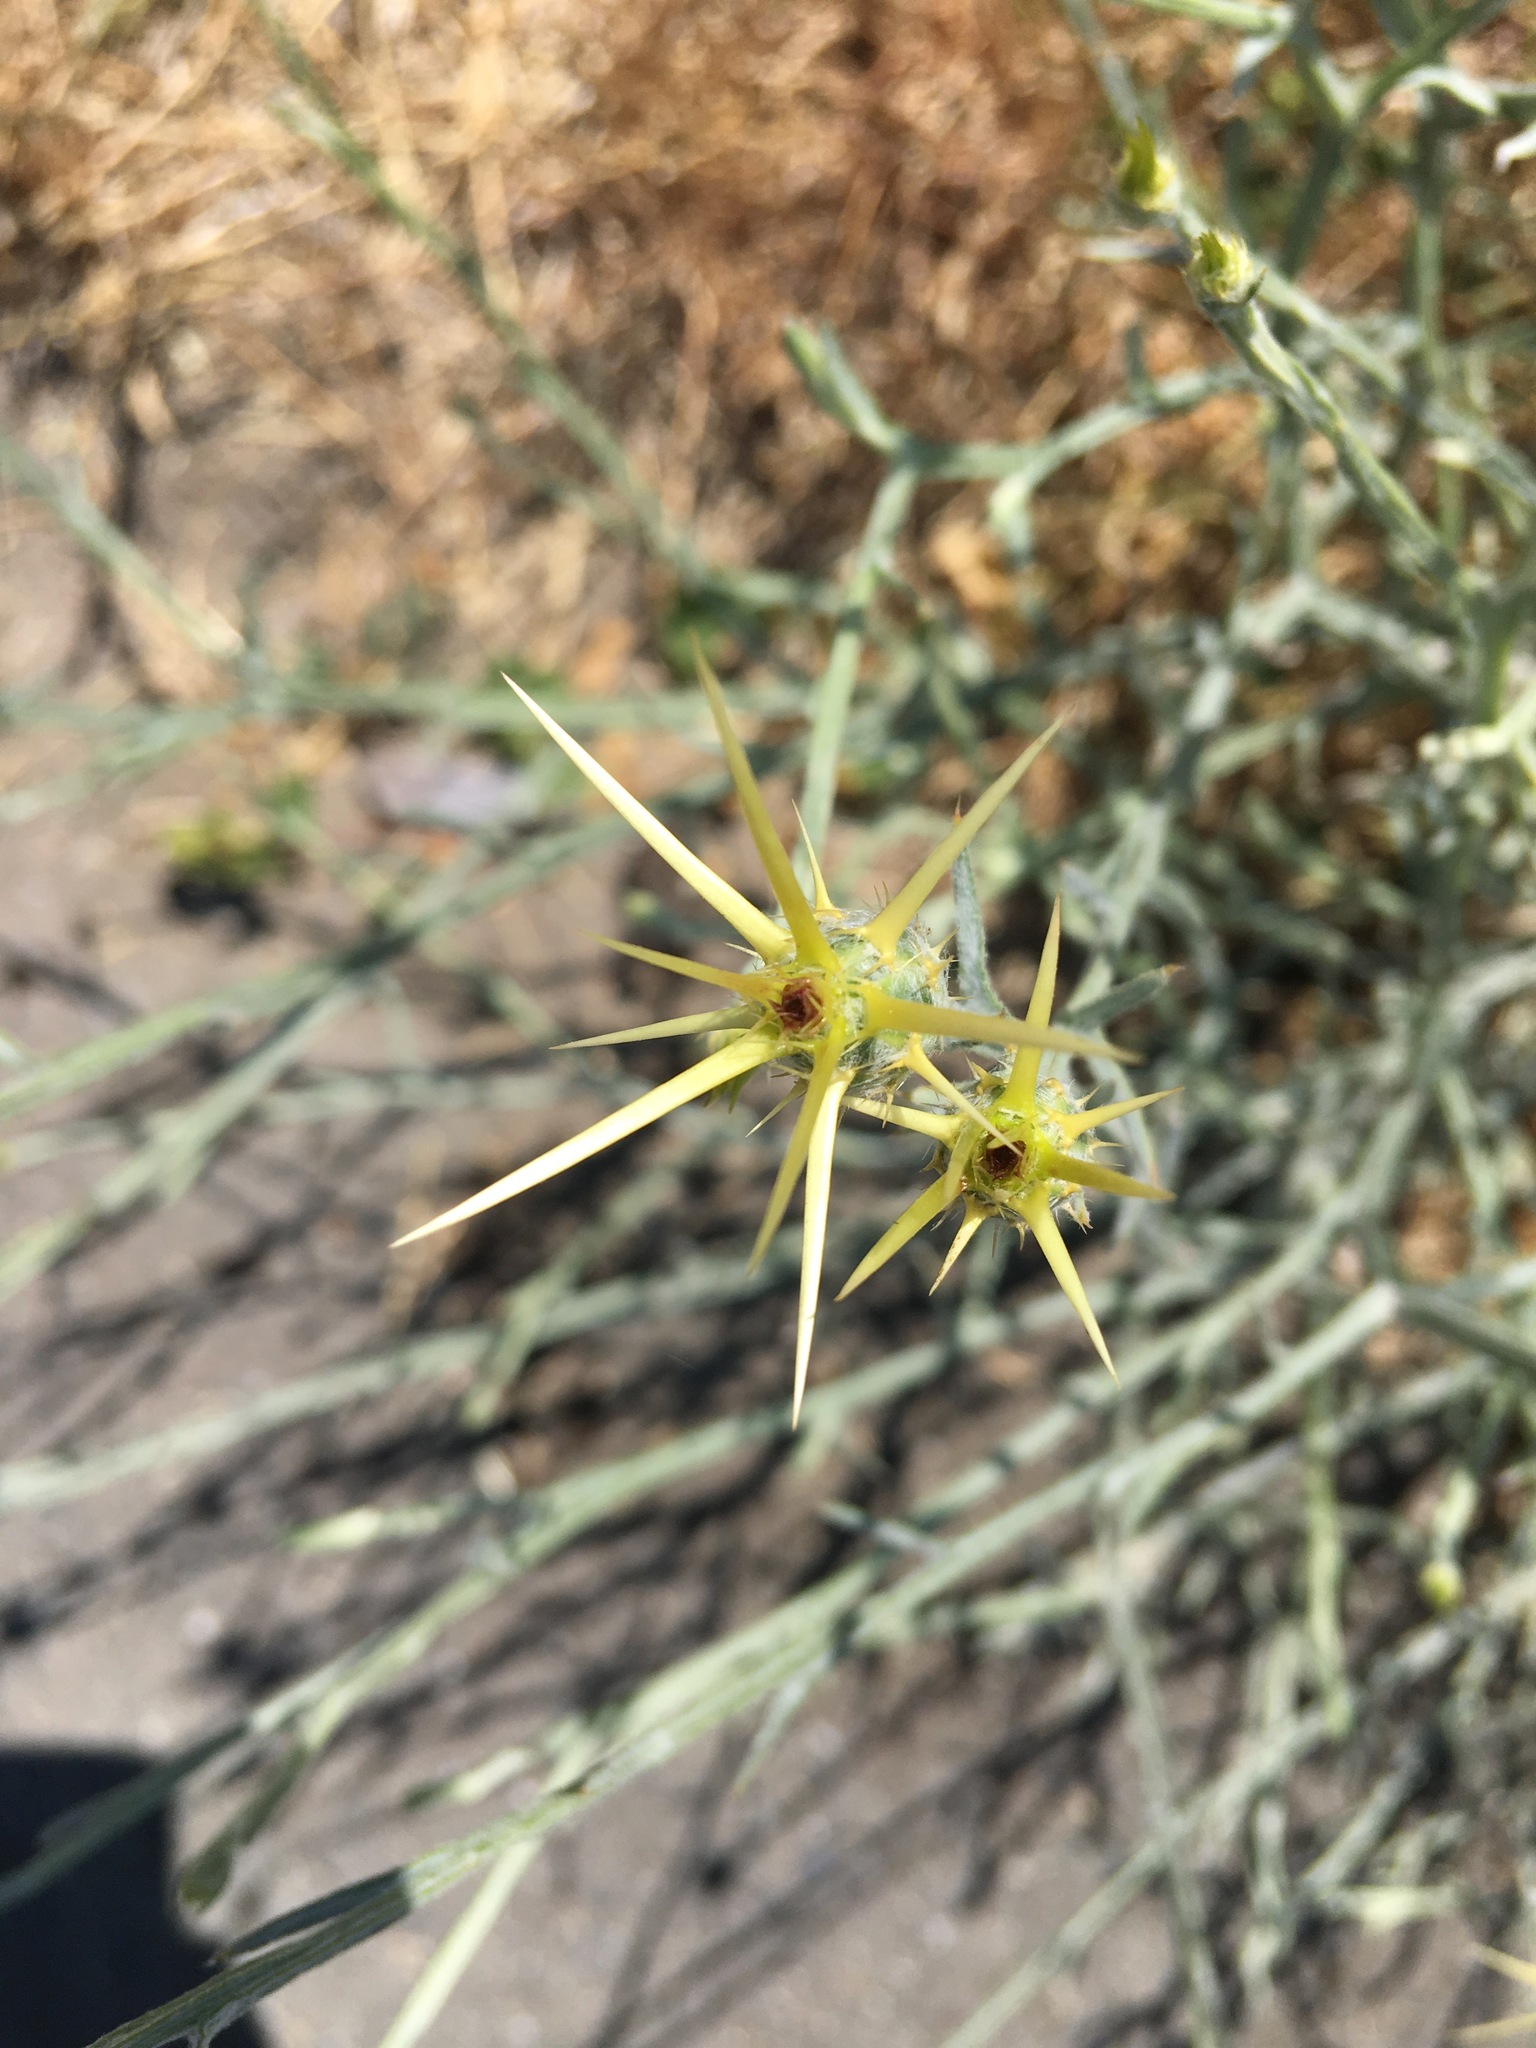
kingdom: Plantae
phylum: Tracheophyta
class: Magnoliopsida
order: Asterales
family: Asteraceae
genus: Centaurea
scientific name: Centaurea solstitialis
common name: Yellow star-thistle
